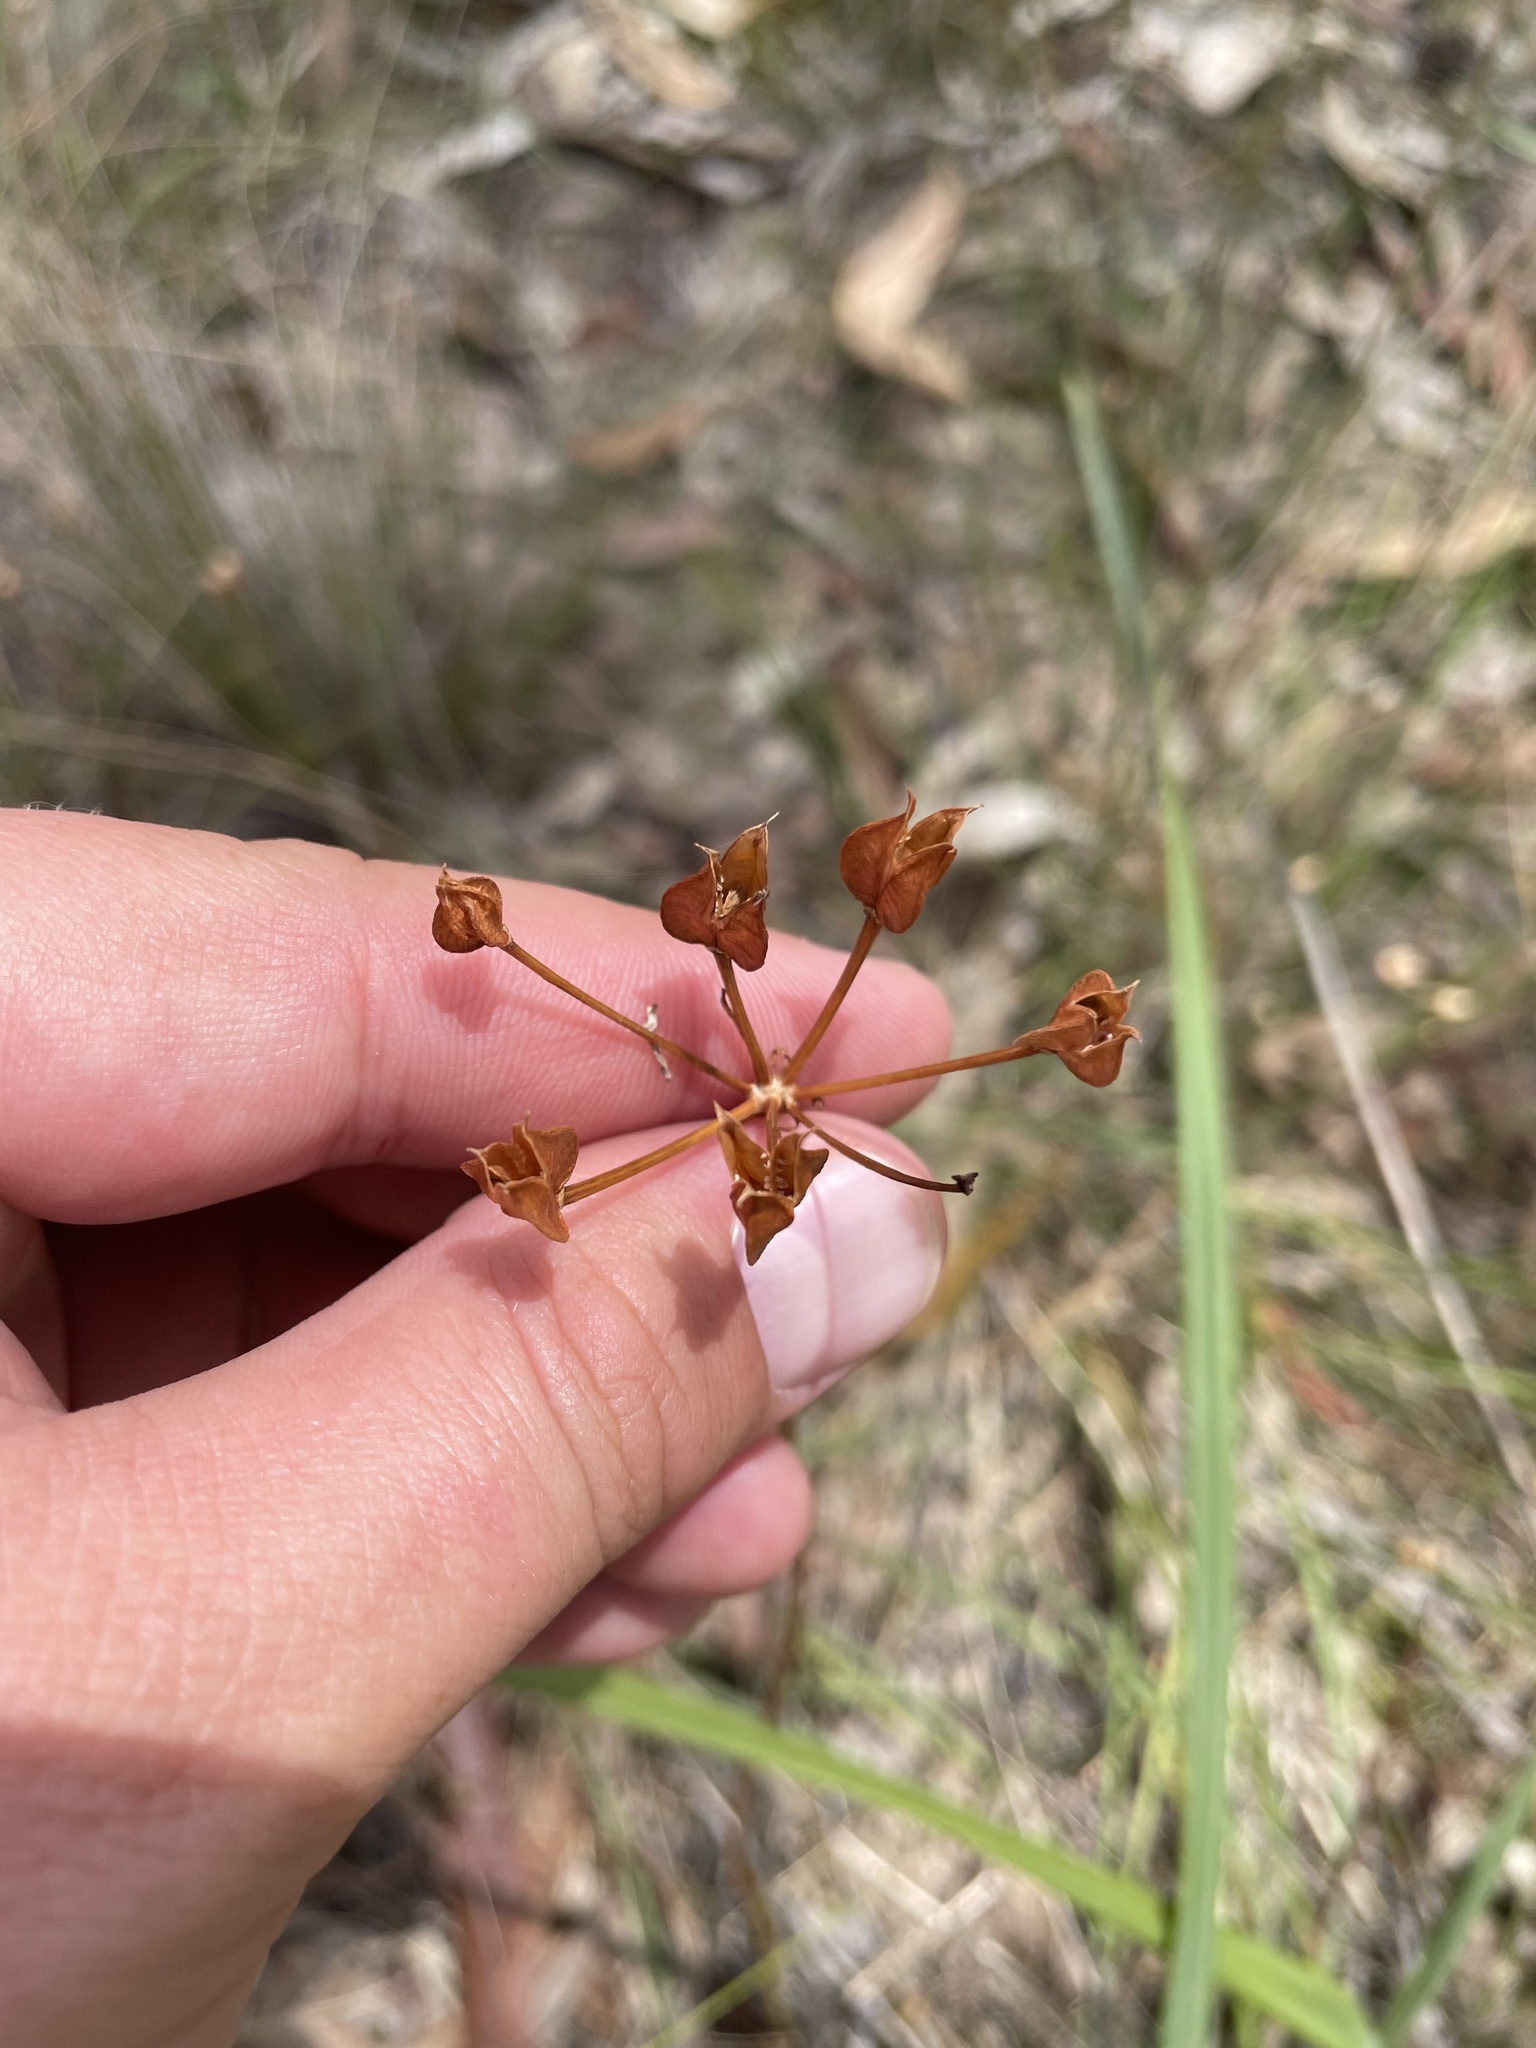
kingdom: Plantae
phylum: Tracheophyta
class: Liliopsida
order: Liliales
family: Colchicaceae
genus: Burchardia
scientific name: Burchardia umbellata
